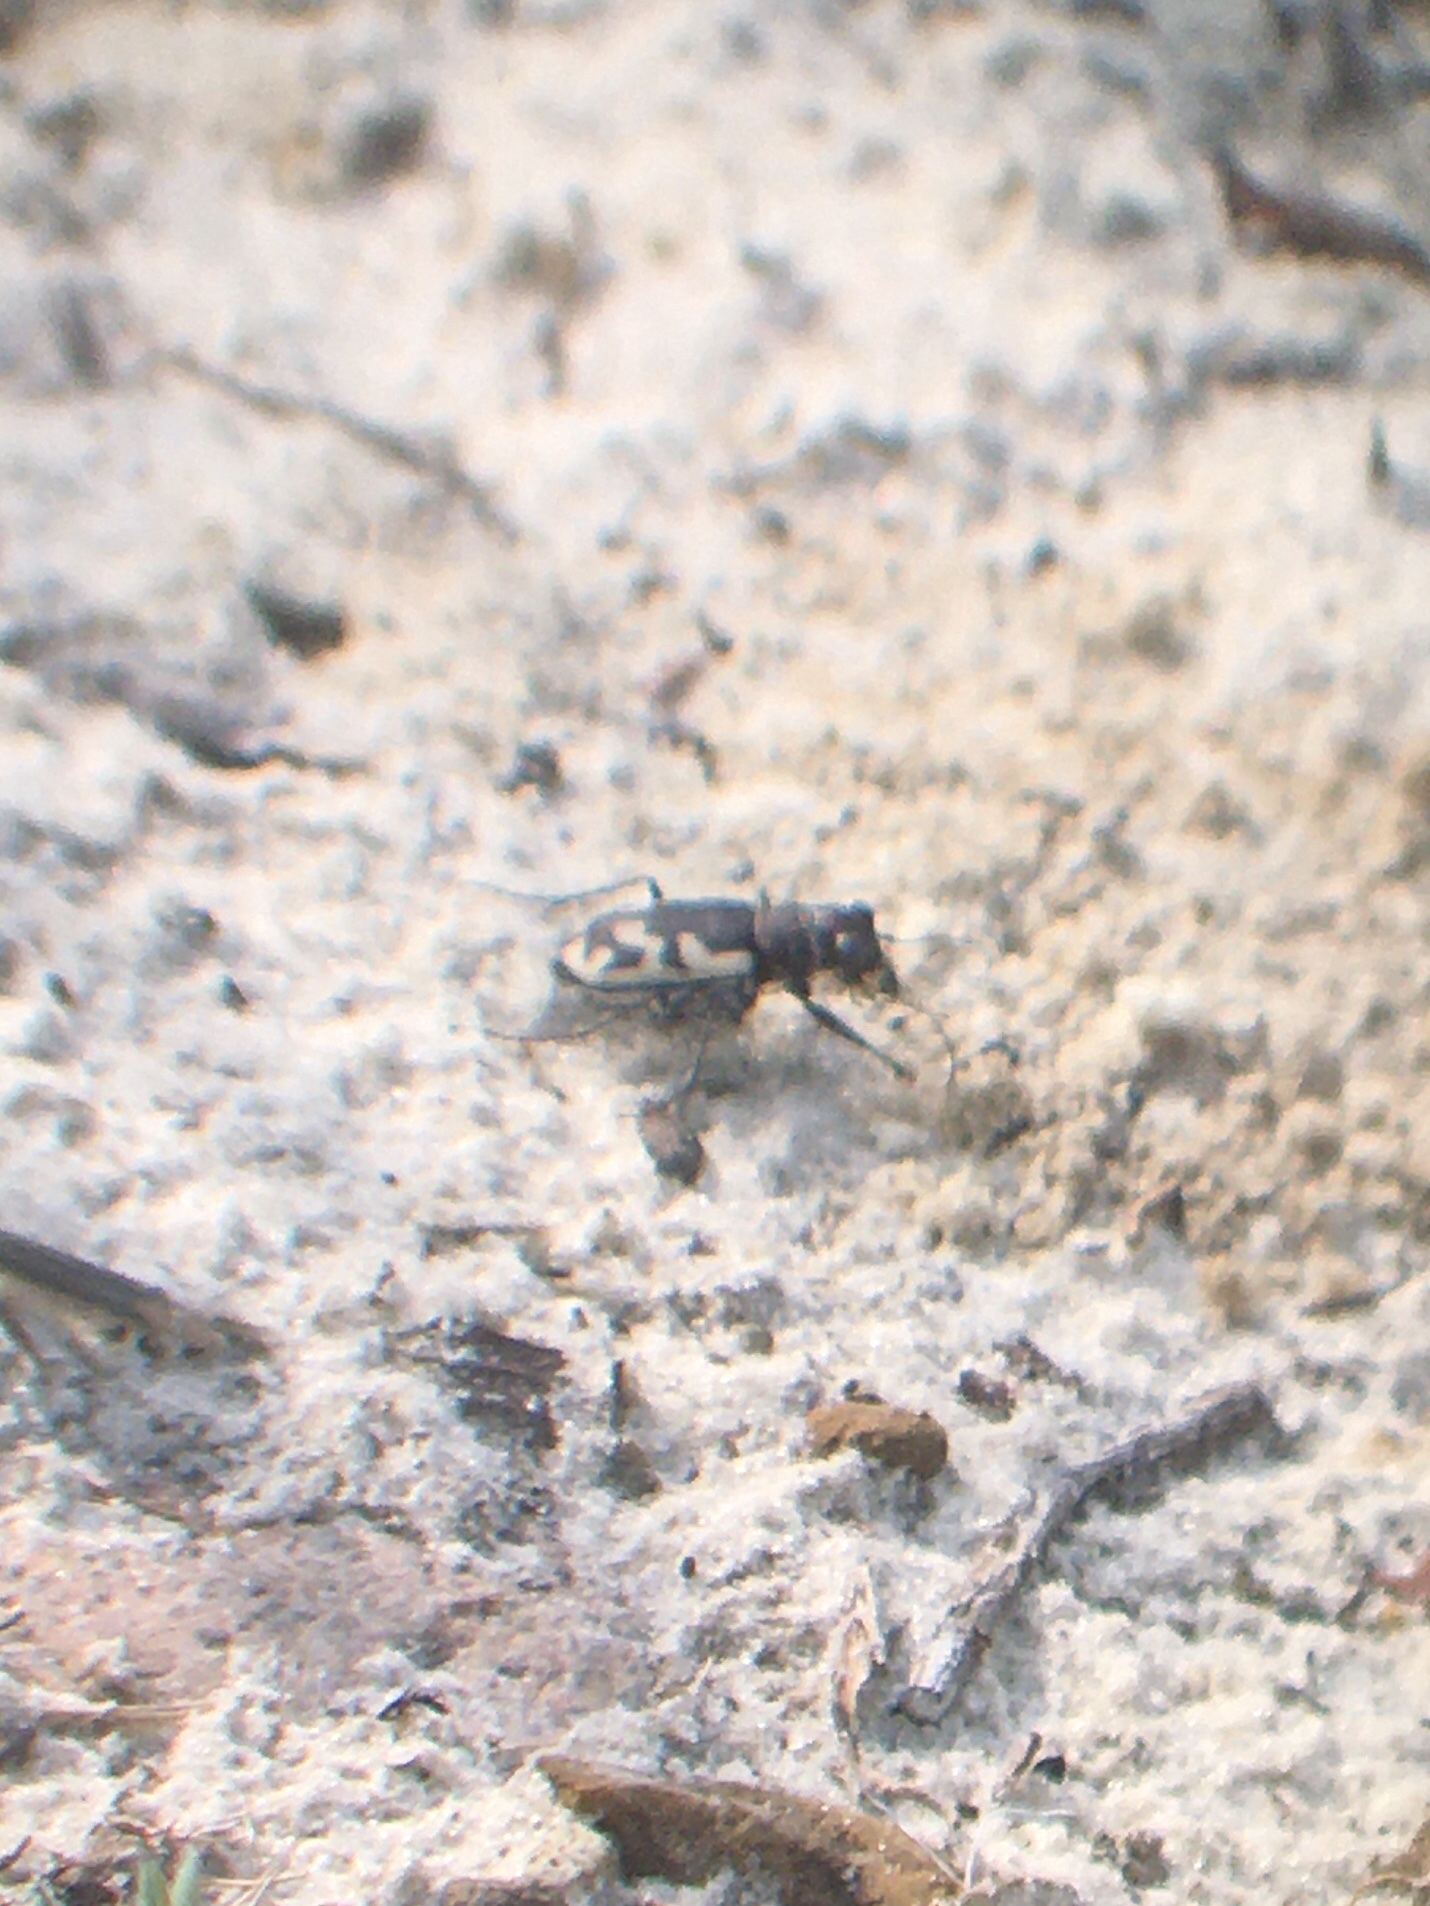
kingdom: Animalia
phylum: Arthropoda
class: Insecta
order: Coleoptera
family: Carabidae
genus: Cicindela
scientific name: Cicindela formosa
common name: Big sand tiger beetle
